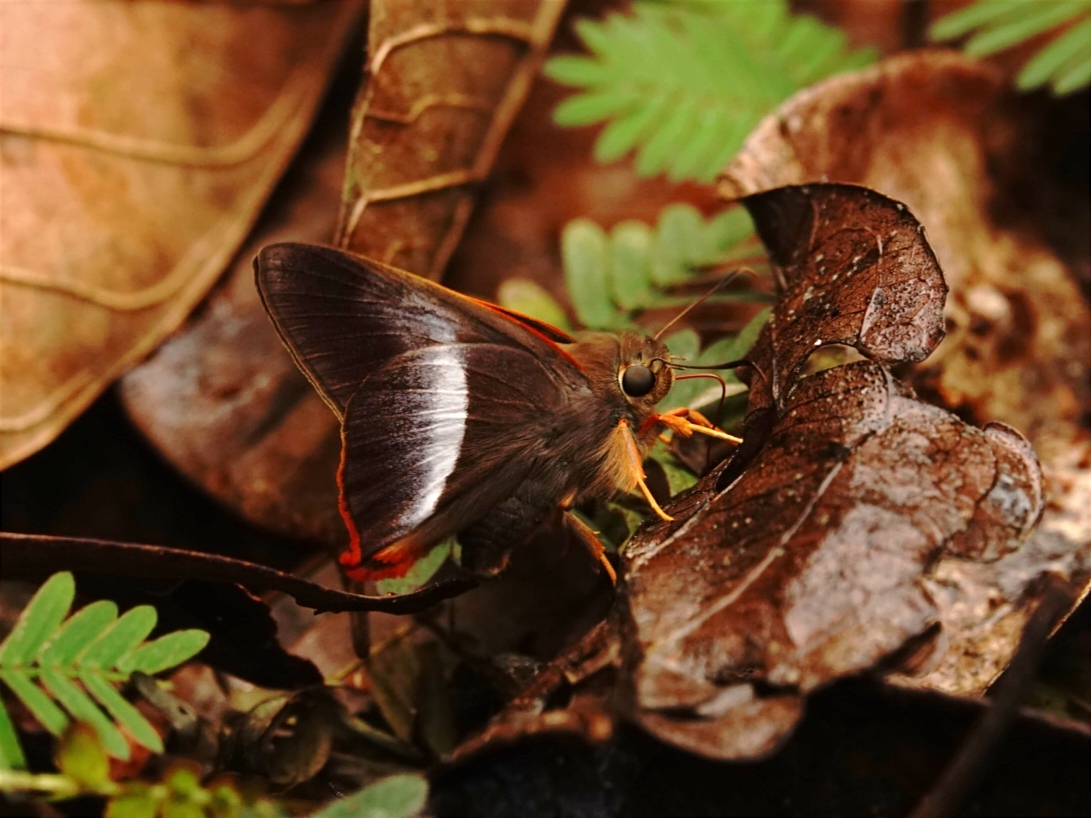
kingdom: Animalia
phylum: Arthropoda
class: Insecta
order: Lepidoptera
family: Hesperiidae
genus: Bibasis
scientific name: Bibasis sena
